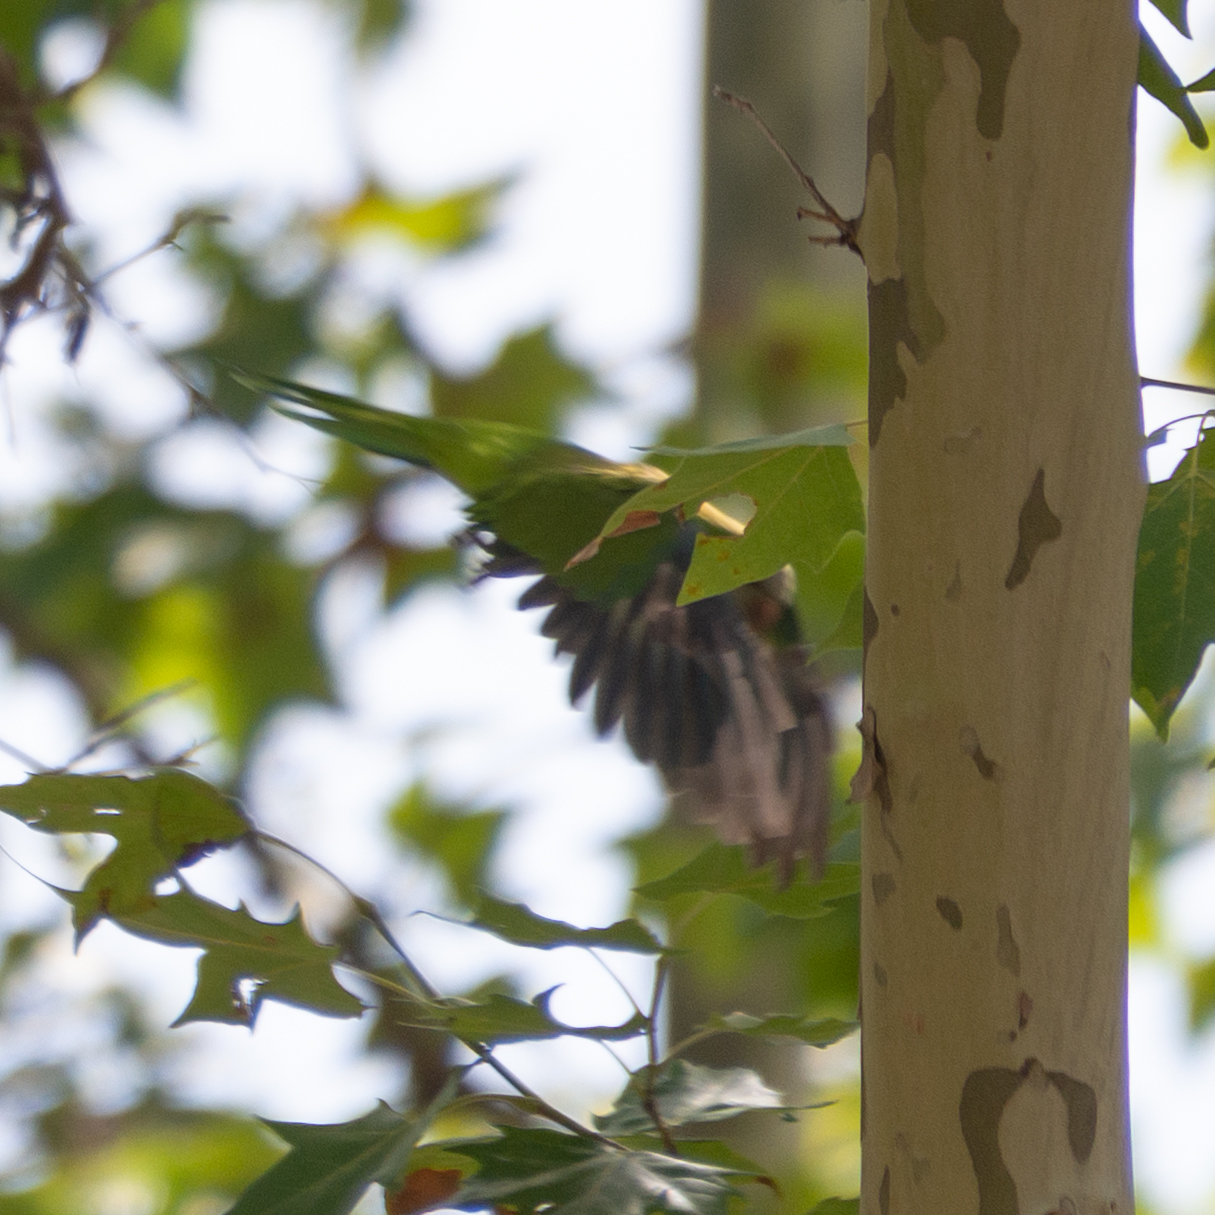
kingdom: Animalia
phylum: Chordata
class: Aves
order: Psittaciformes
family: Psittacidae
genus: Myiopsitta
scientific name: Myiopsitta monachus
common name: Monk parakeet
